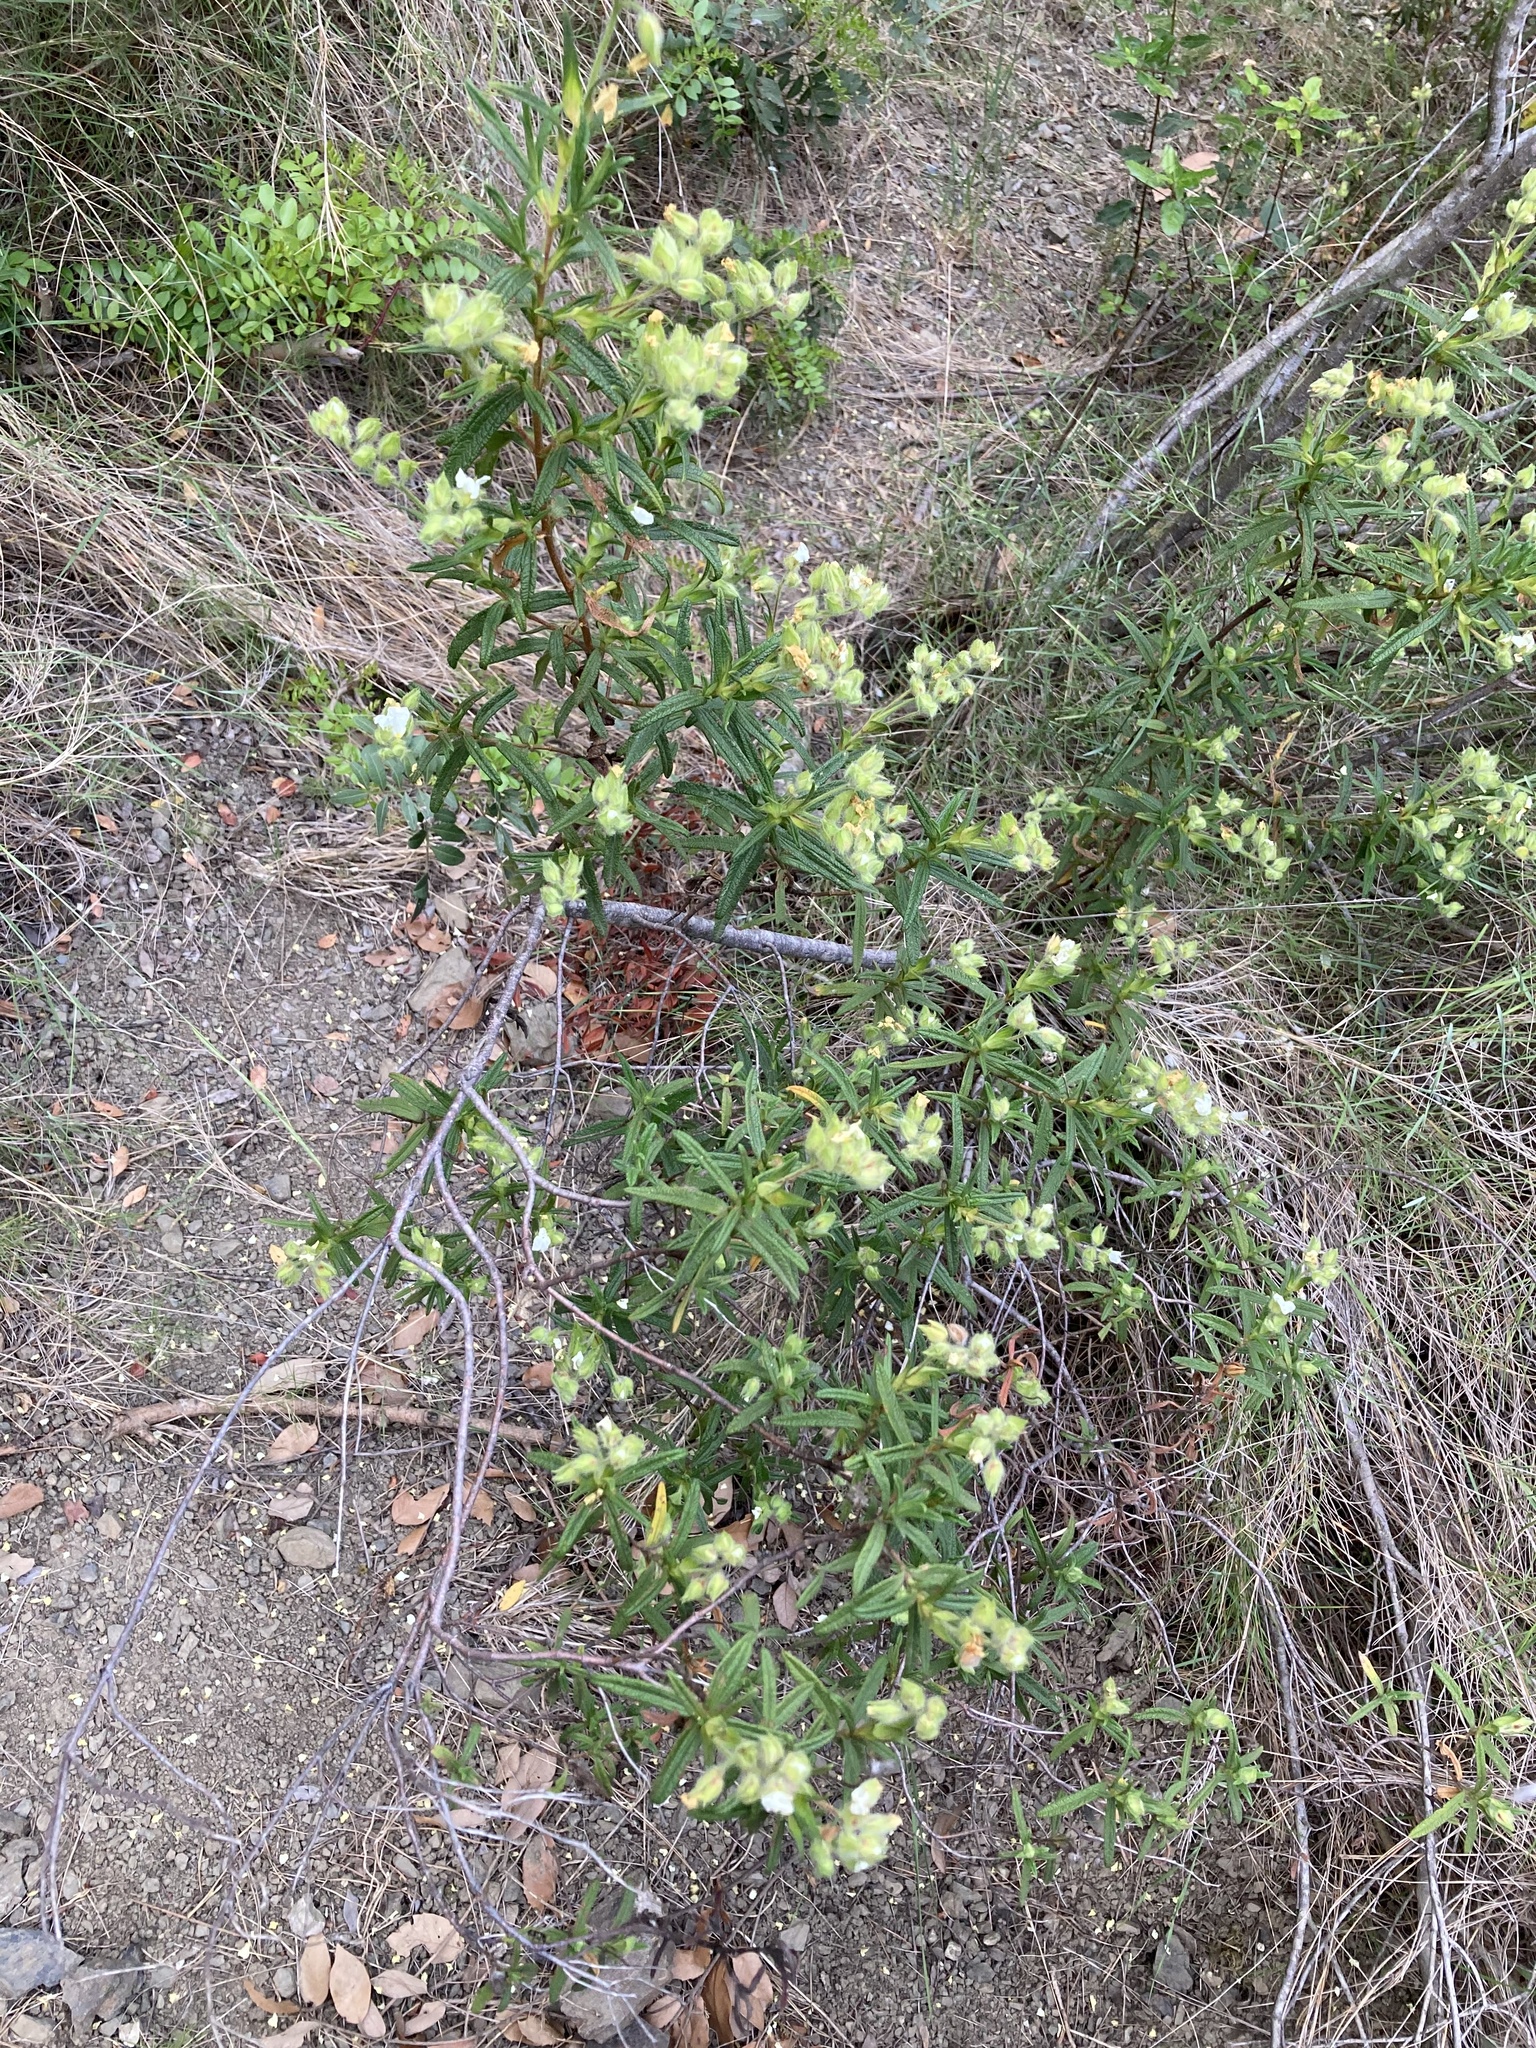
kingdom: Plantae
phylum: Tracheophyta
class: Magnoliopsida
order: Malvales
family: Cistaceae
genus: Cistus
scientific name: Cistus monspeliensis
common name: Montpelier cistus
